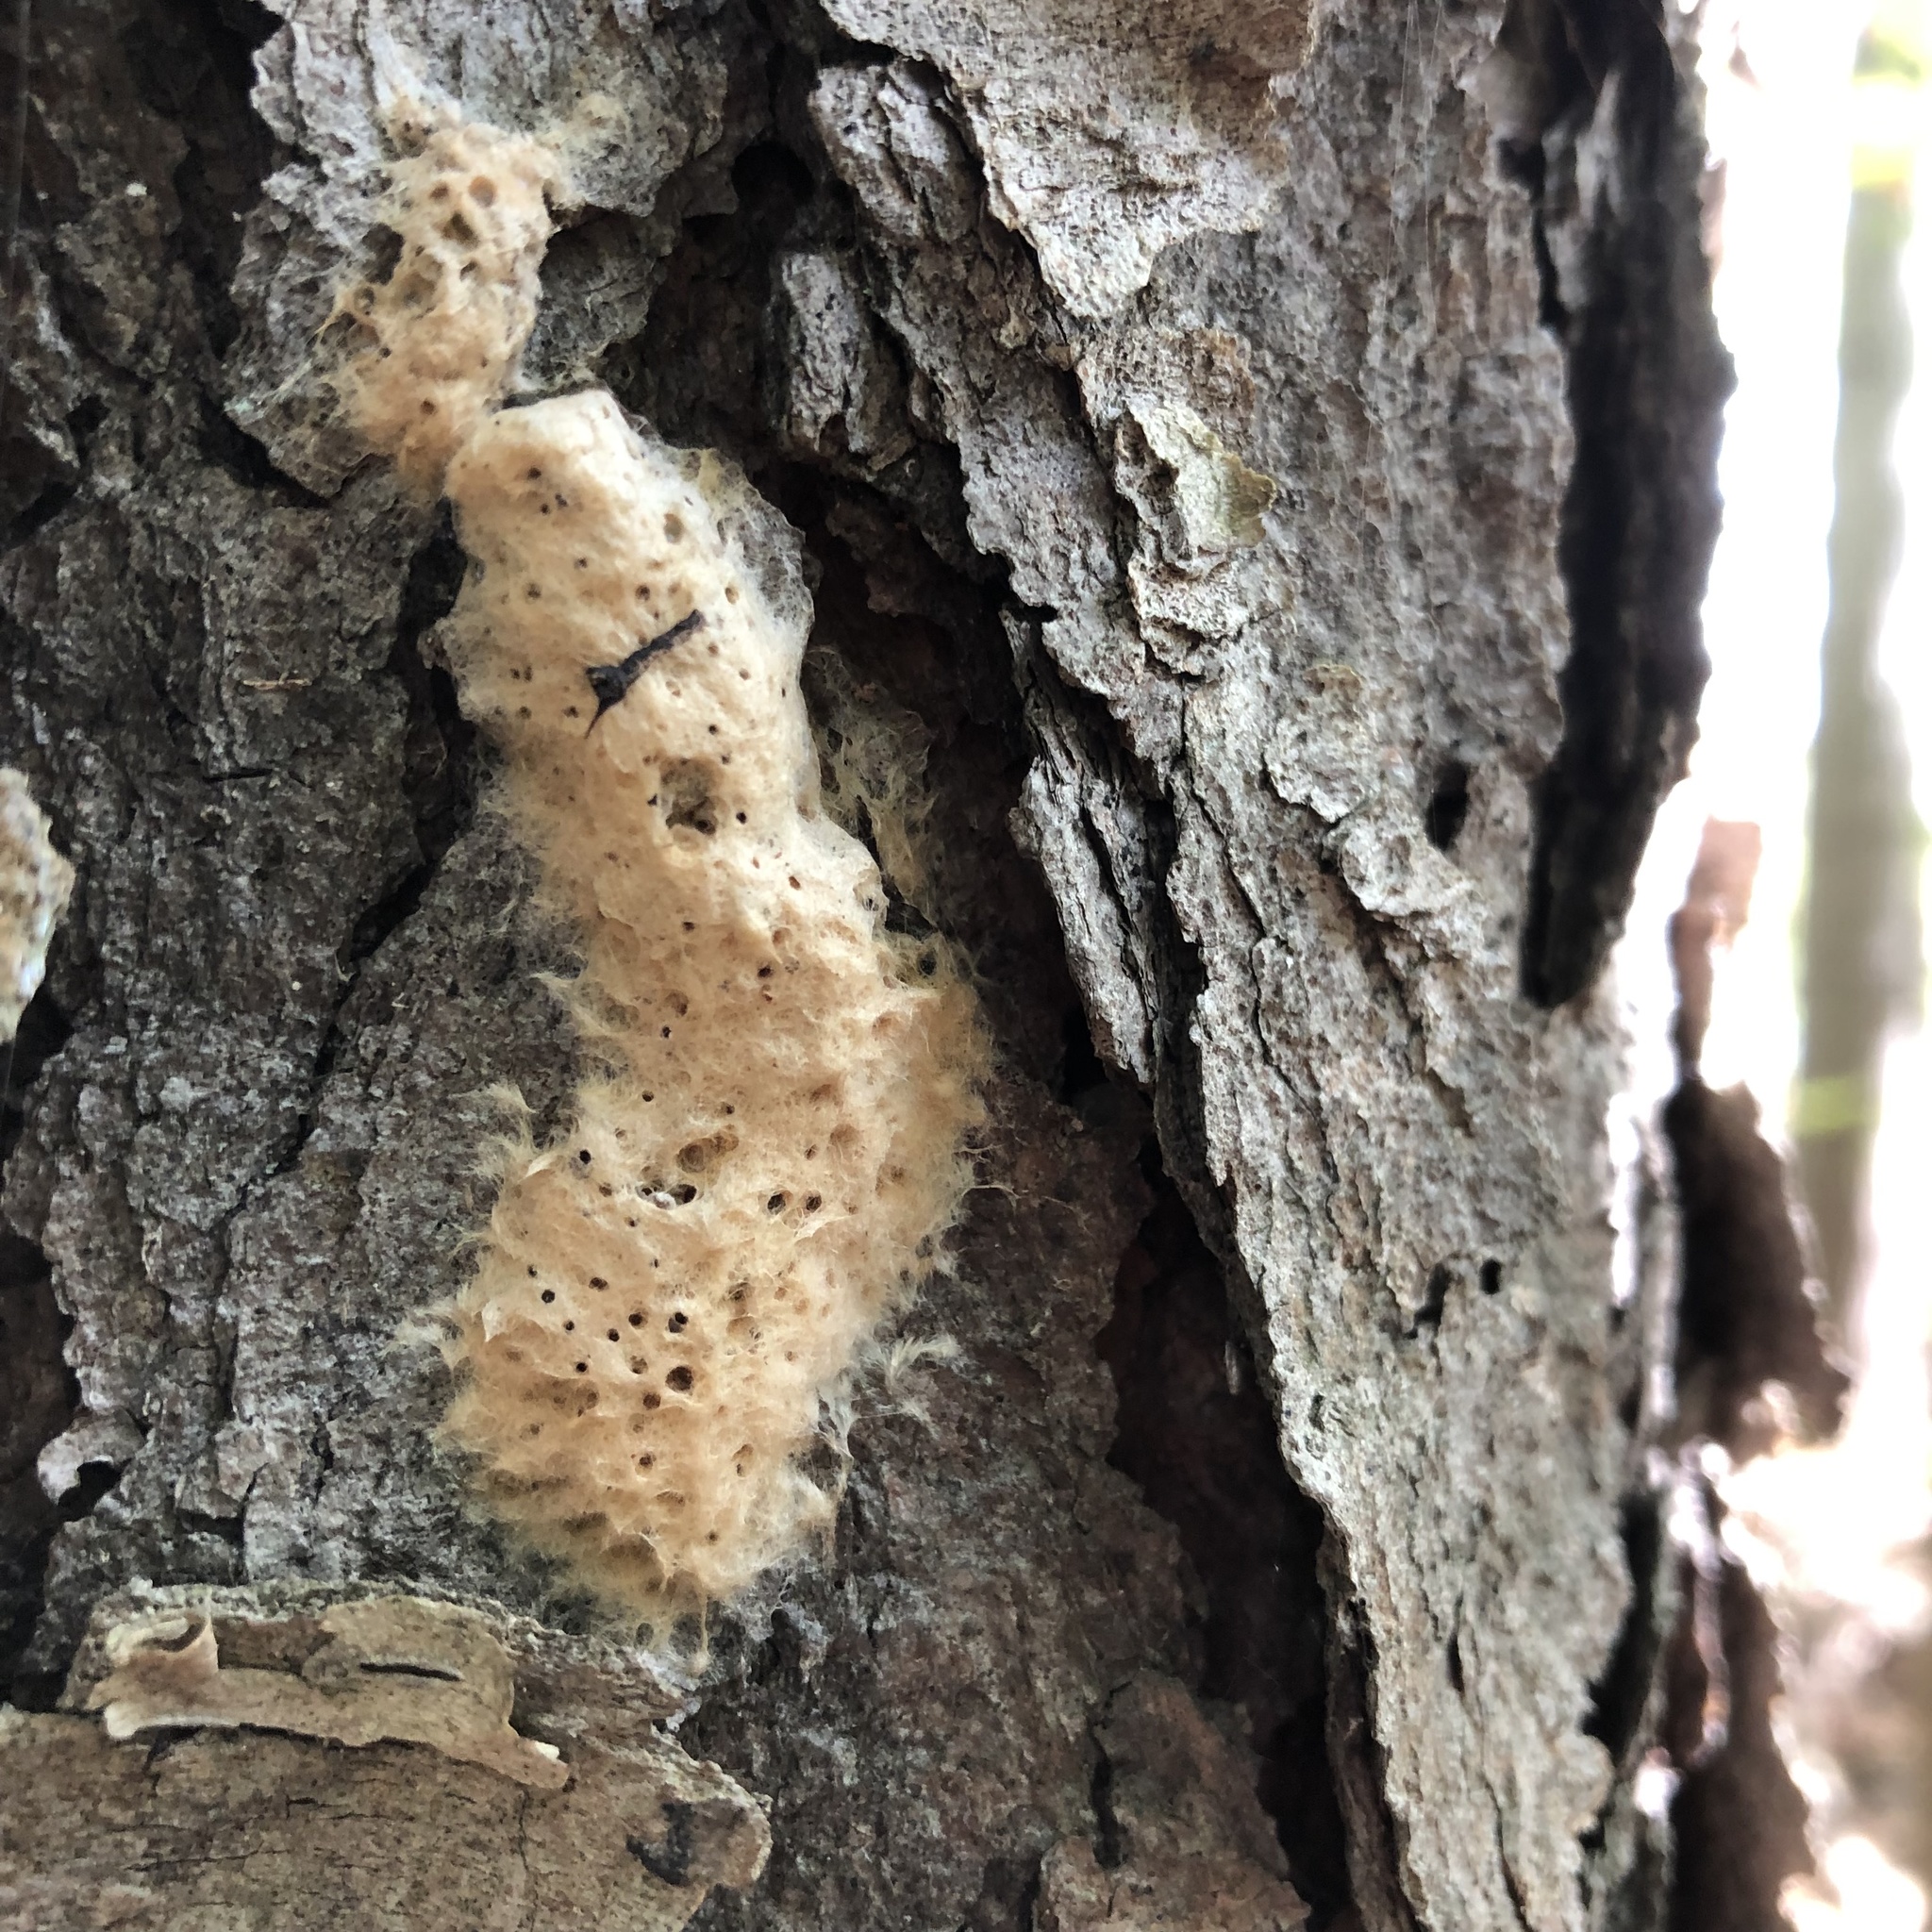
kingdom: Animalia
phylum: Arthropoda
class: Insecta
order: Lepidoptera
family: Erebidae
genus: Lymantria
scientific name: Lymantria dispar
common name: Gypsy moth
